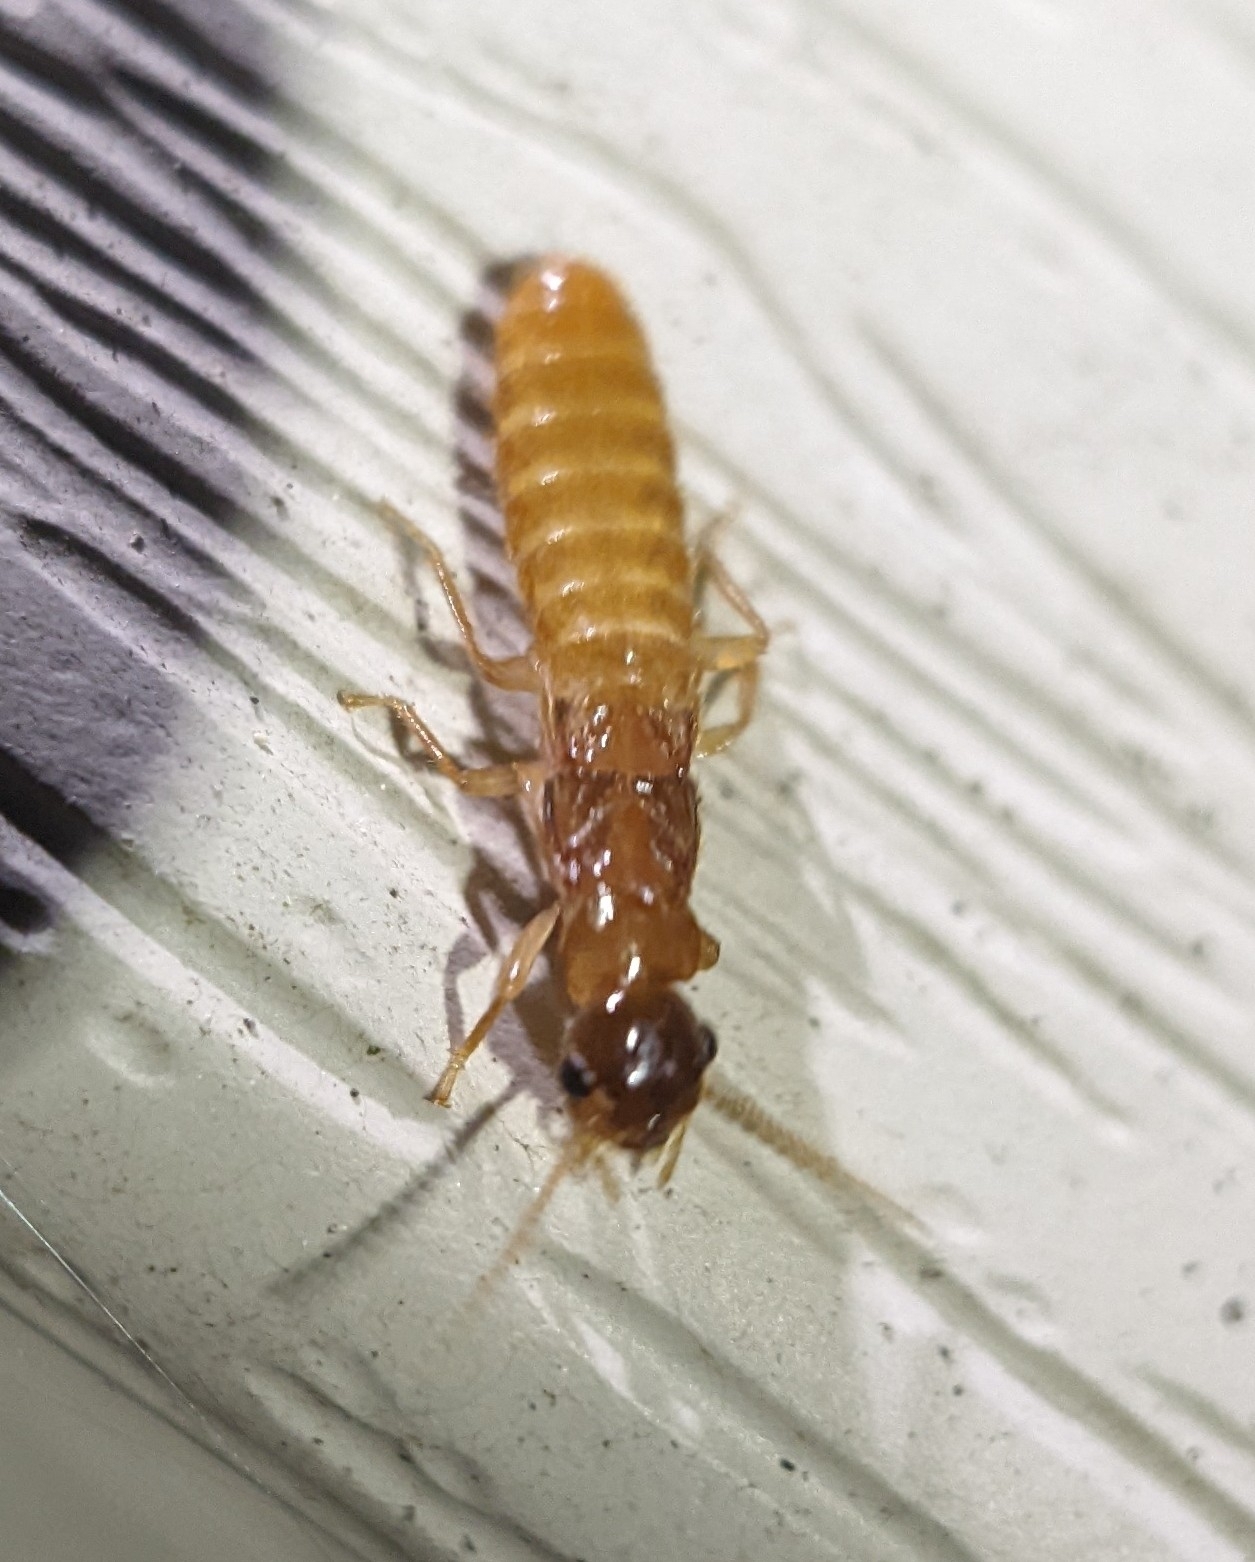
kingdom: Animalia
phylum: Arthropoda
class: Insecta
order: Blattodea
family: Rhinotermitidae
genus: Coptotermes
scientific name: Coptotermes formosanus
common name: Formosan termite
